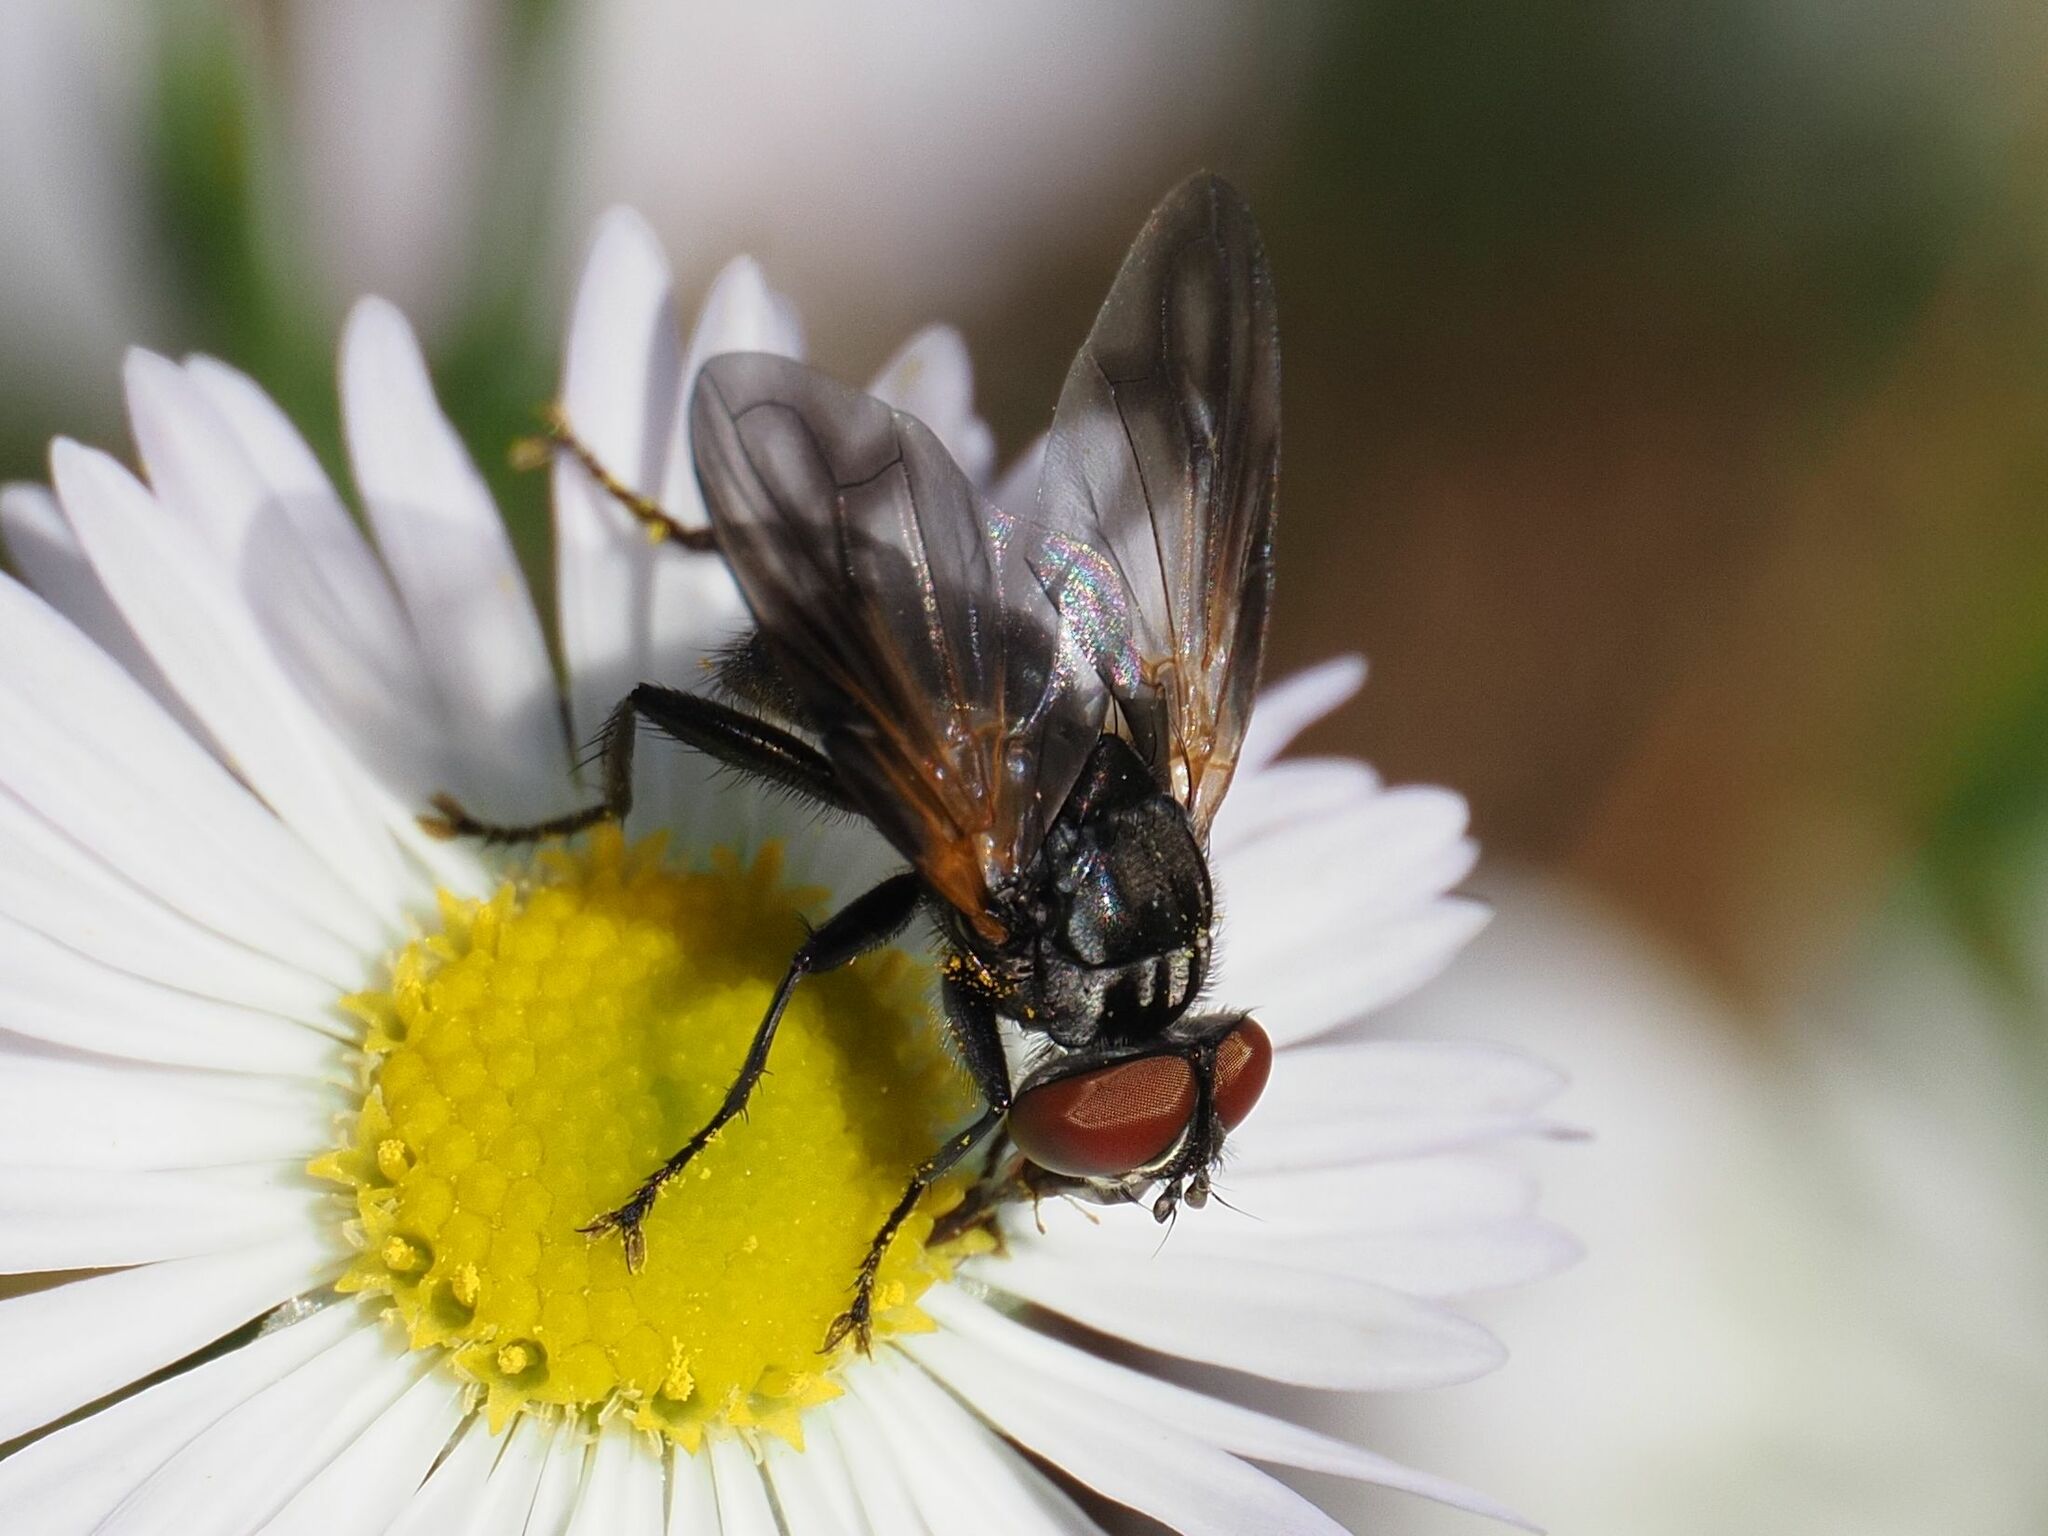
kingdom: Animalia
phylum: Arthropoda
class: Insecta
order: Diptera
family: Tachinidae
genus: Phasia
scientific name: Phasia obesa
